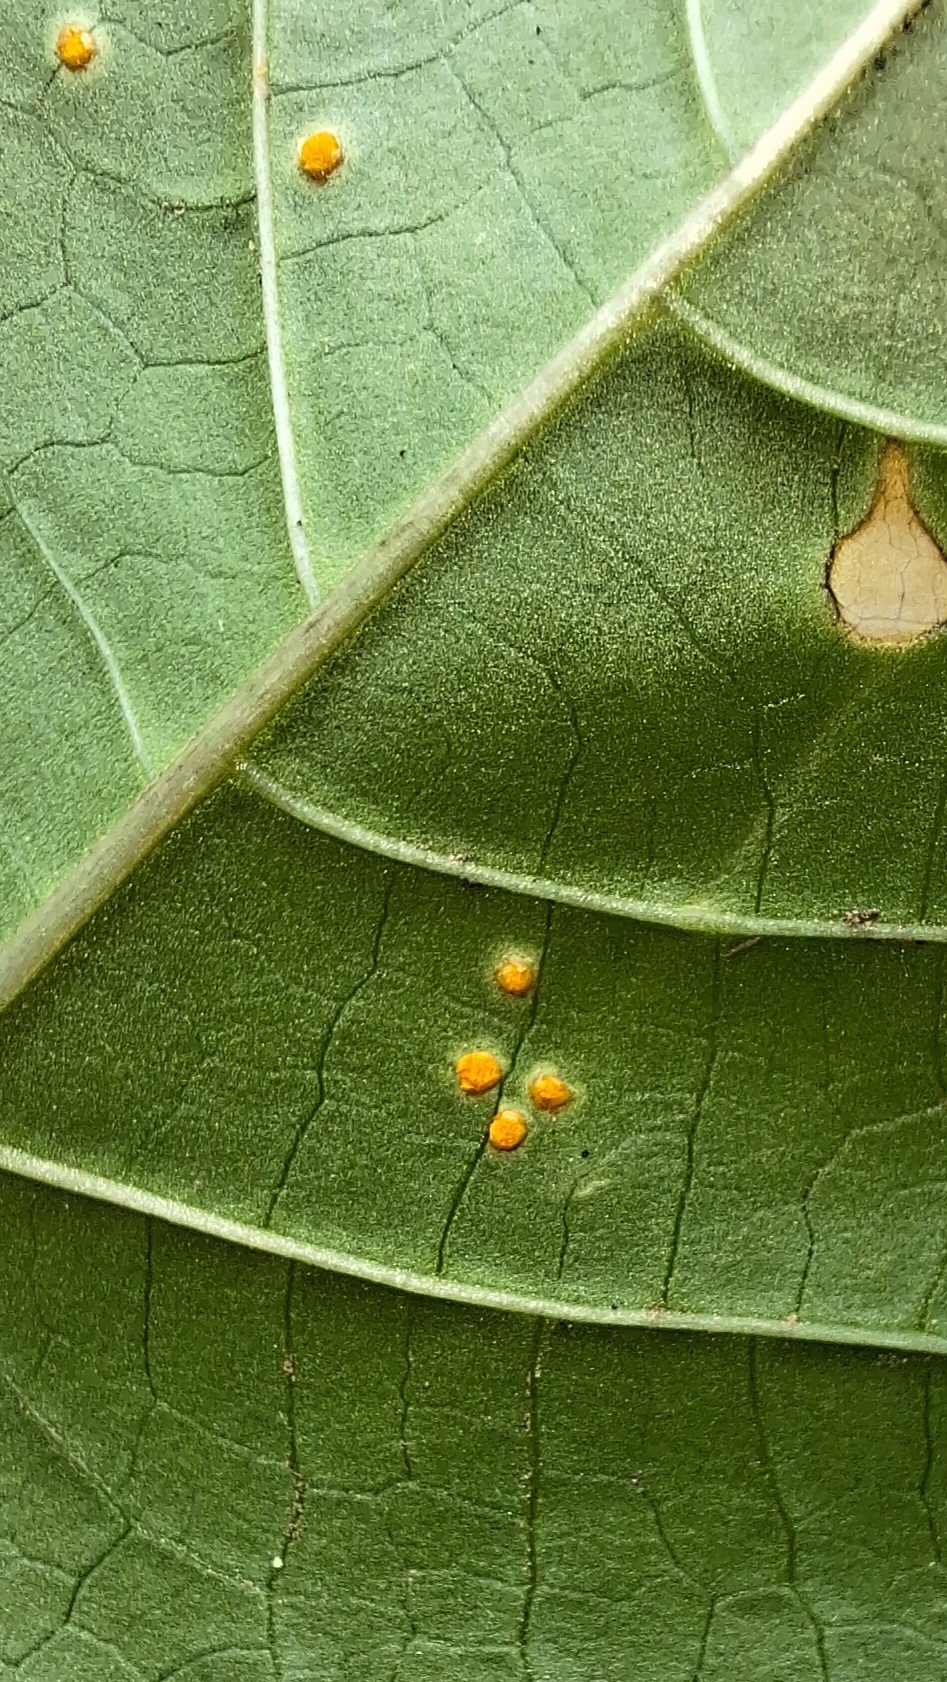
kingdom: Fungi
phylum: Basidiomycota
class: Pucciniomycetes
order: Pucciniales
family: Melampsoraceae
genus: Melampsora
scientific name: Melampsora ricini
